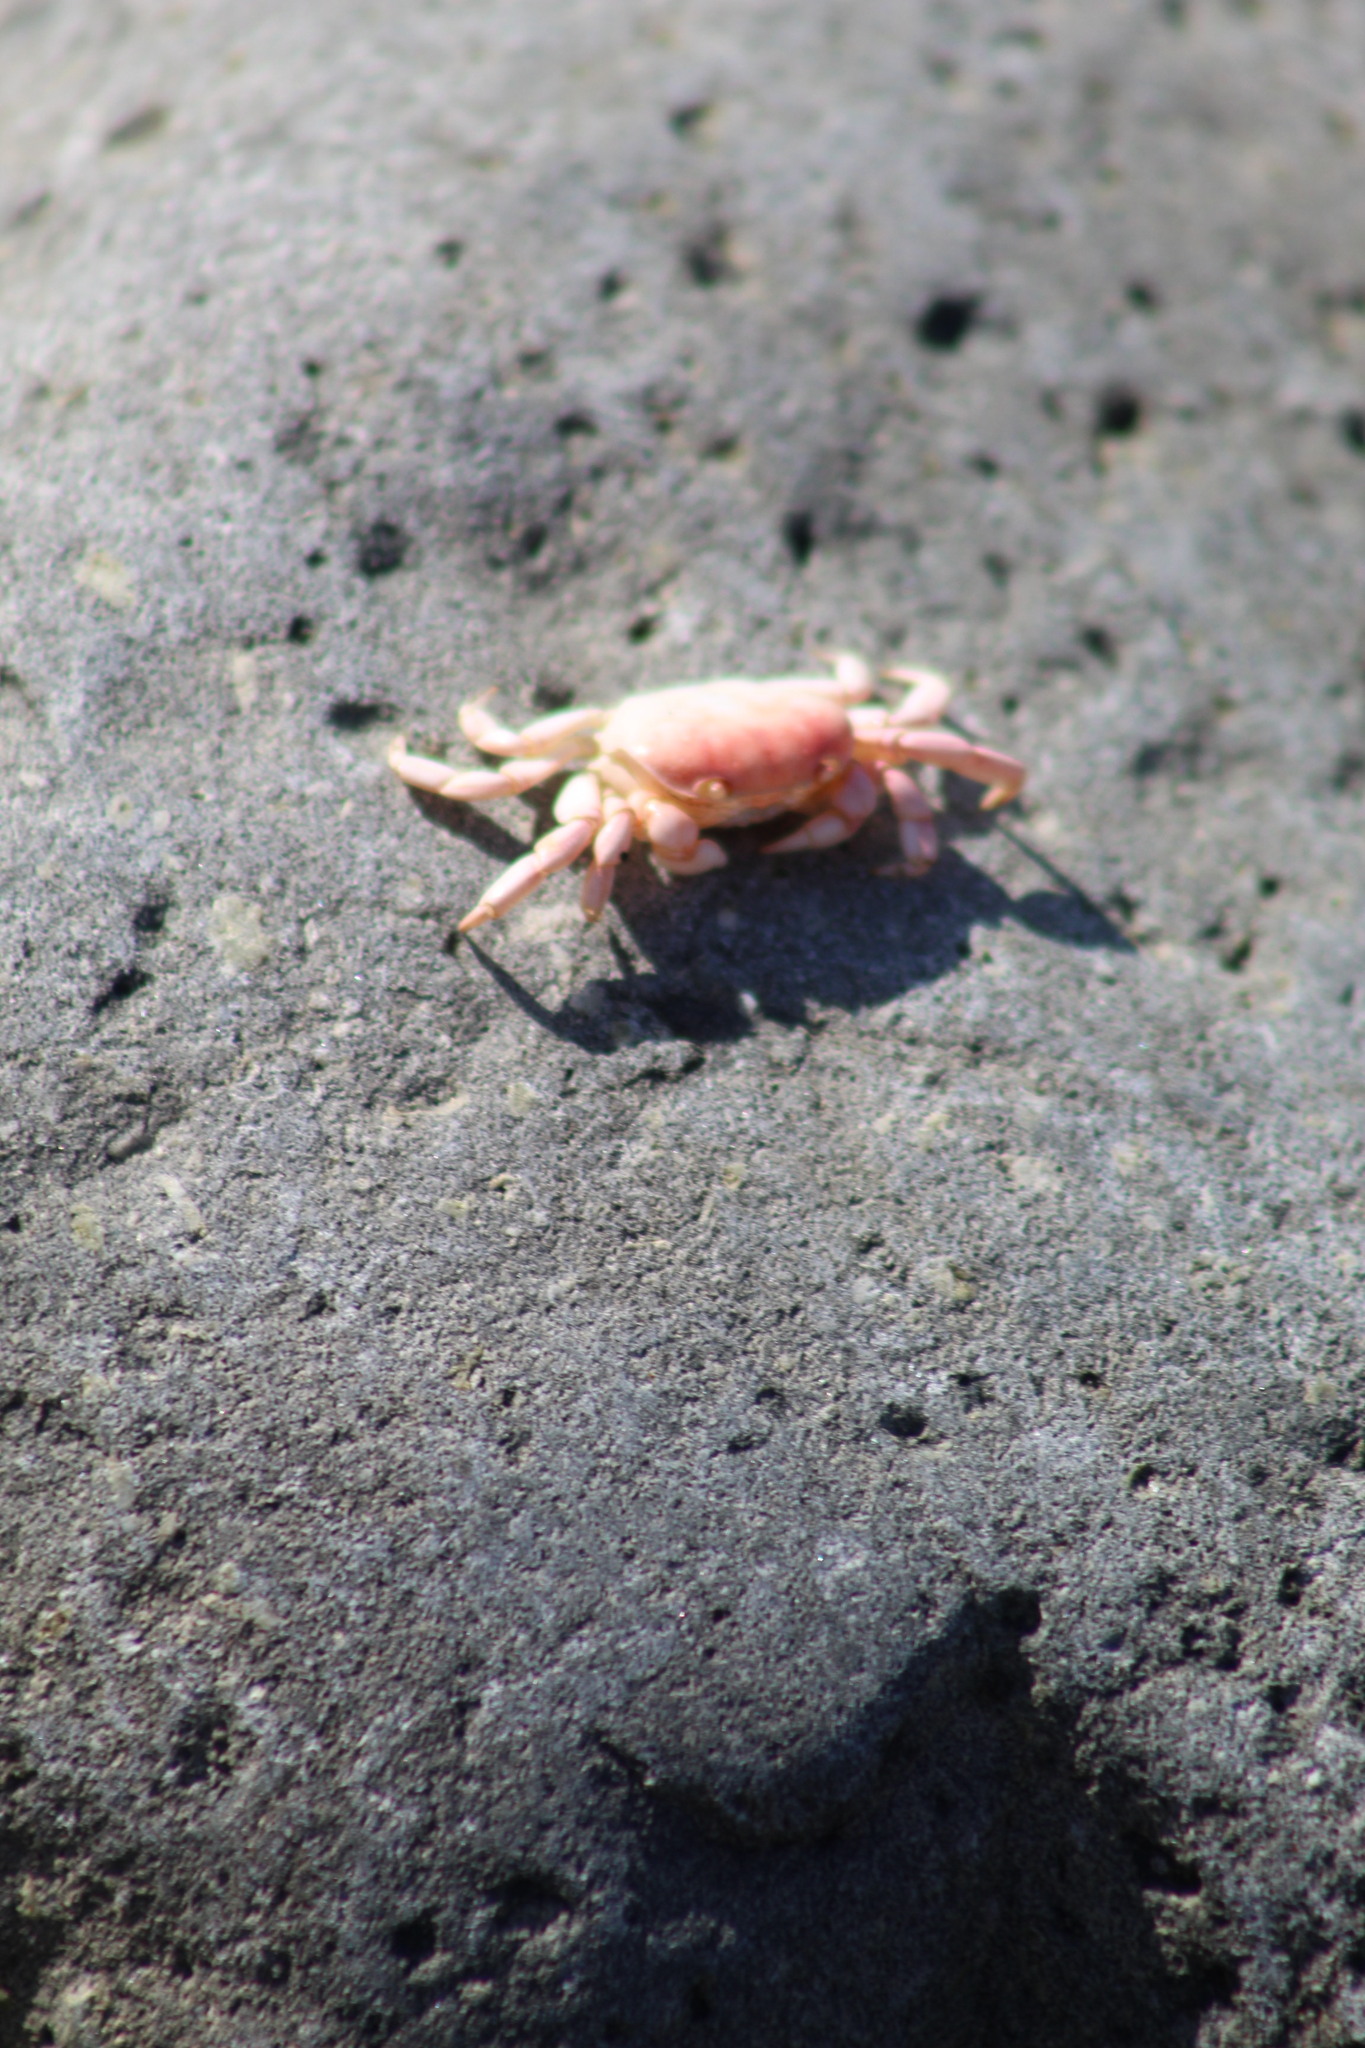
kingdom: Animalia
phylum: Arthropoda
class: Malacostraca
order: Decapoda
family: Varunidae
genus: Cyclograpsus
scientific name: Cyclograpsus cinereus
